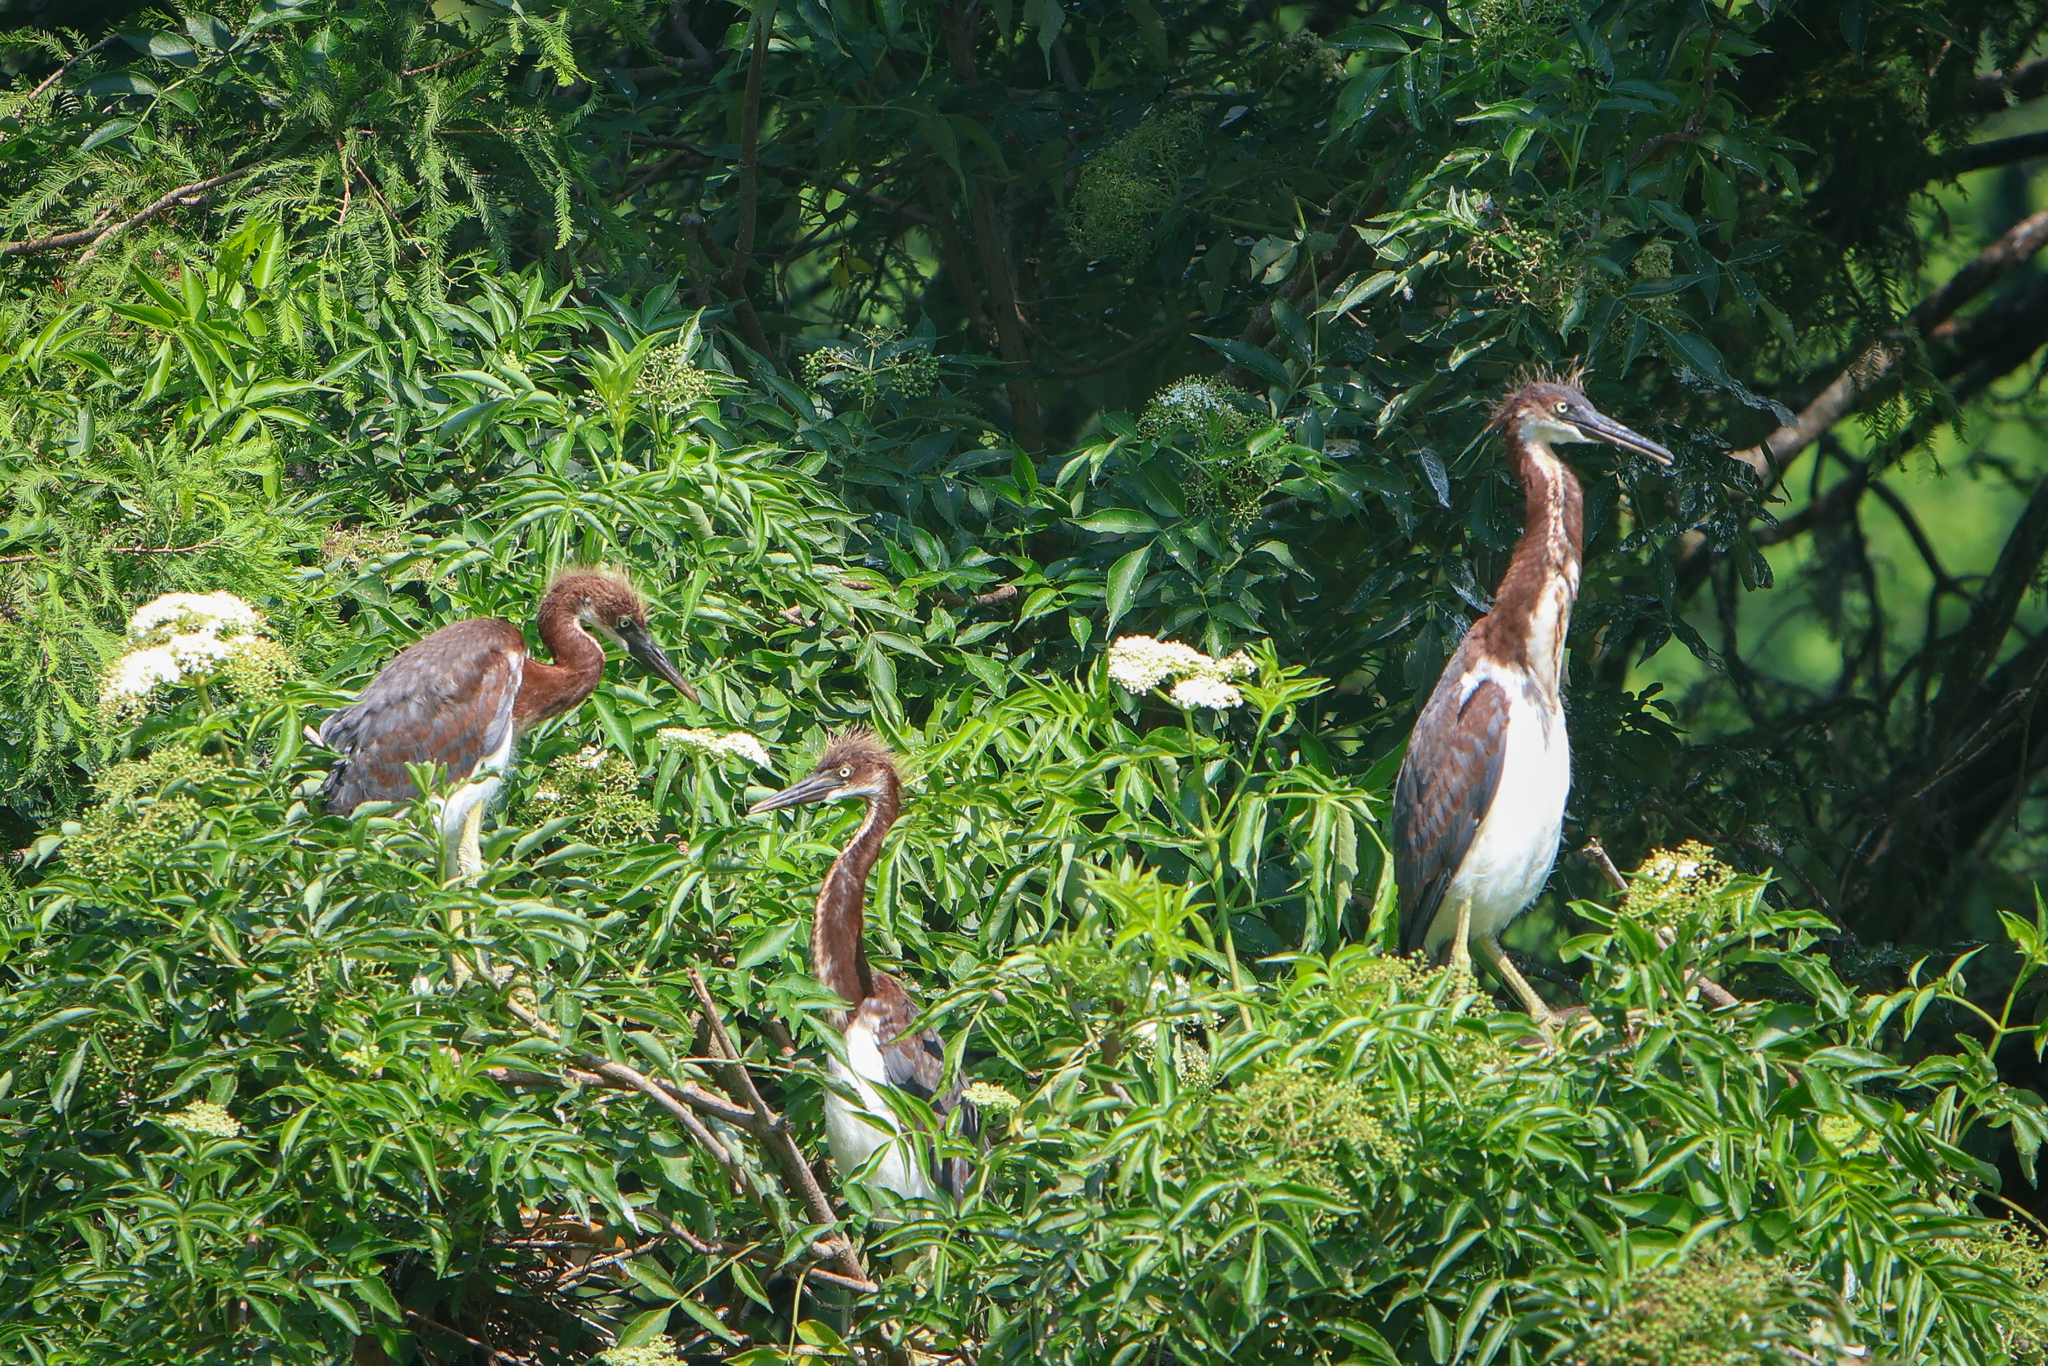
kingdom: Animalia
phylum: Chordata
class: Aves
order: Pelecaniformes
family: Ardeidae
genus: Egretta
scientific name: Egretta tricolor
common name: Tricolored heron
